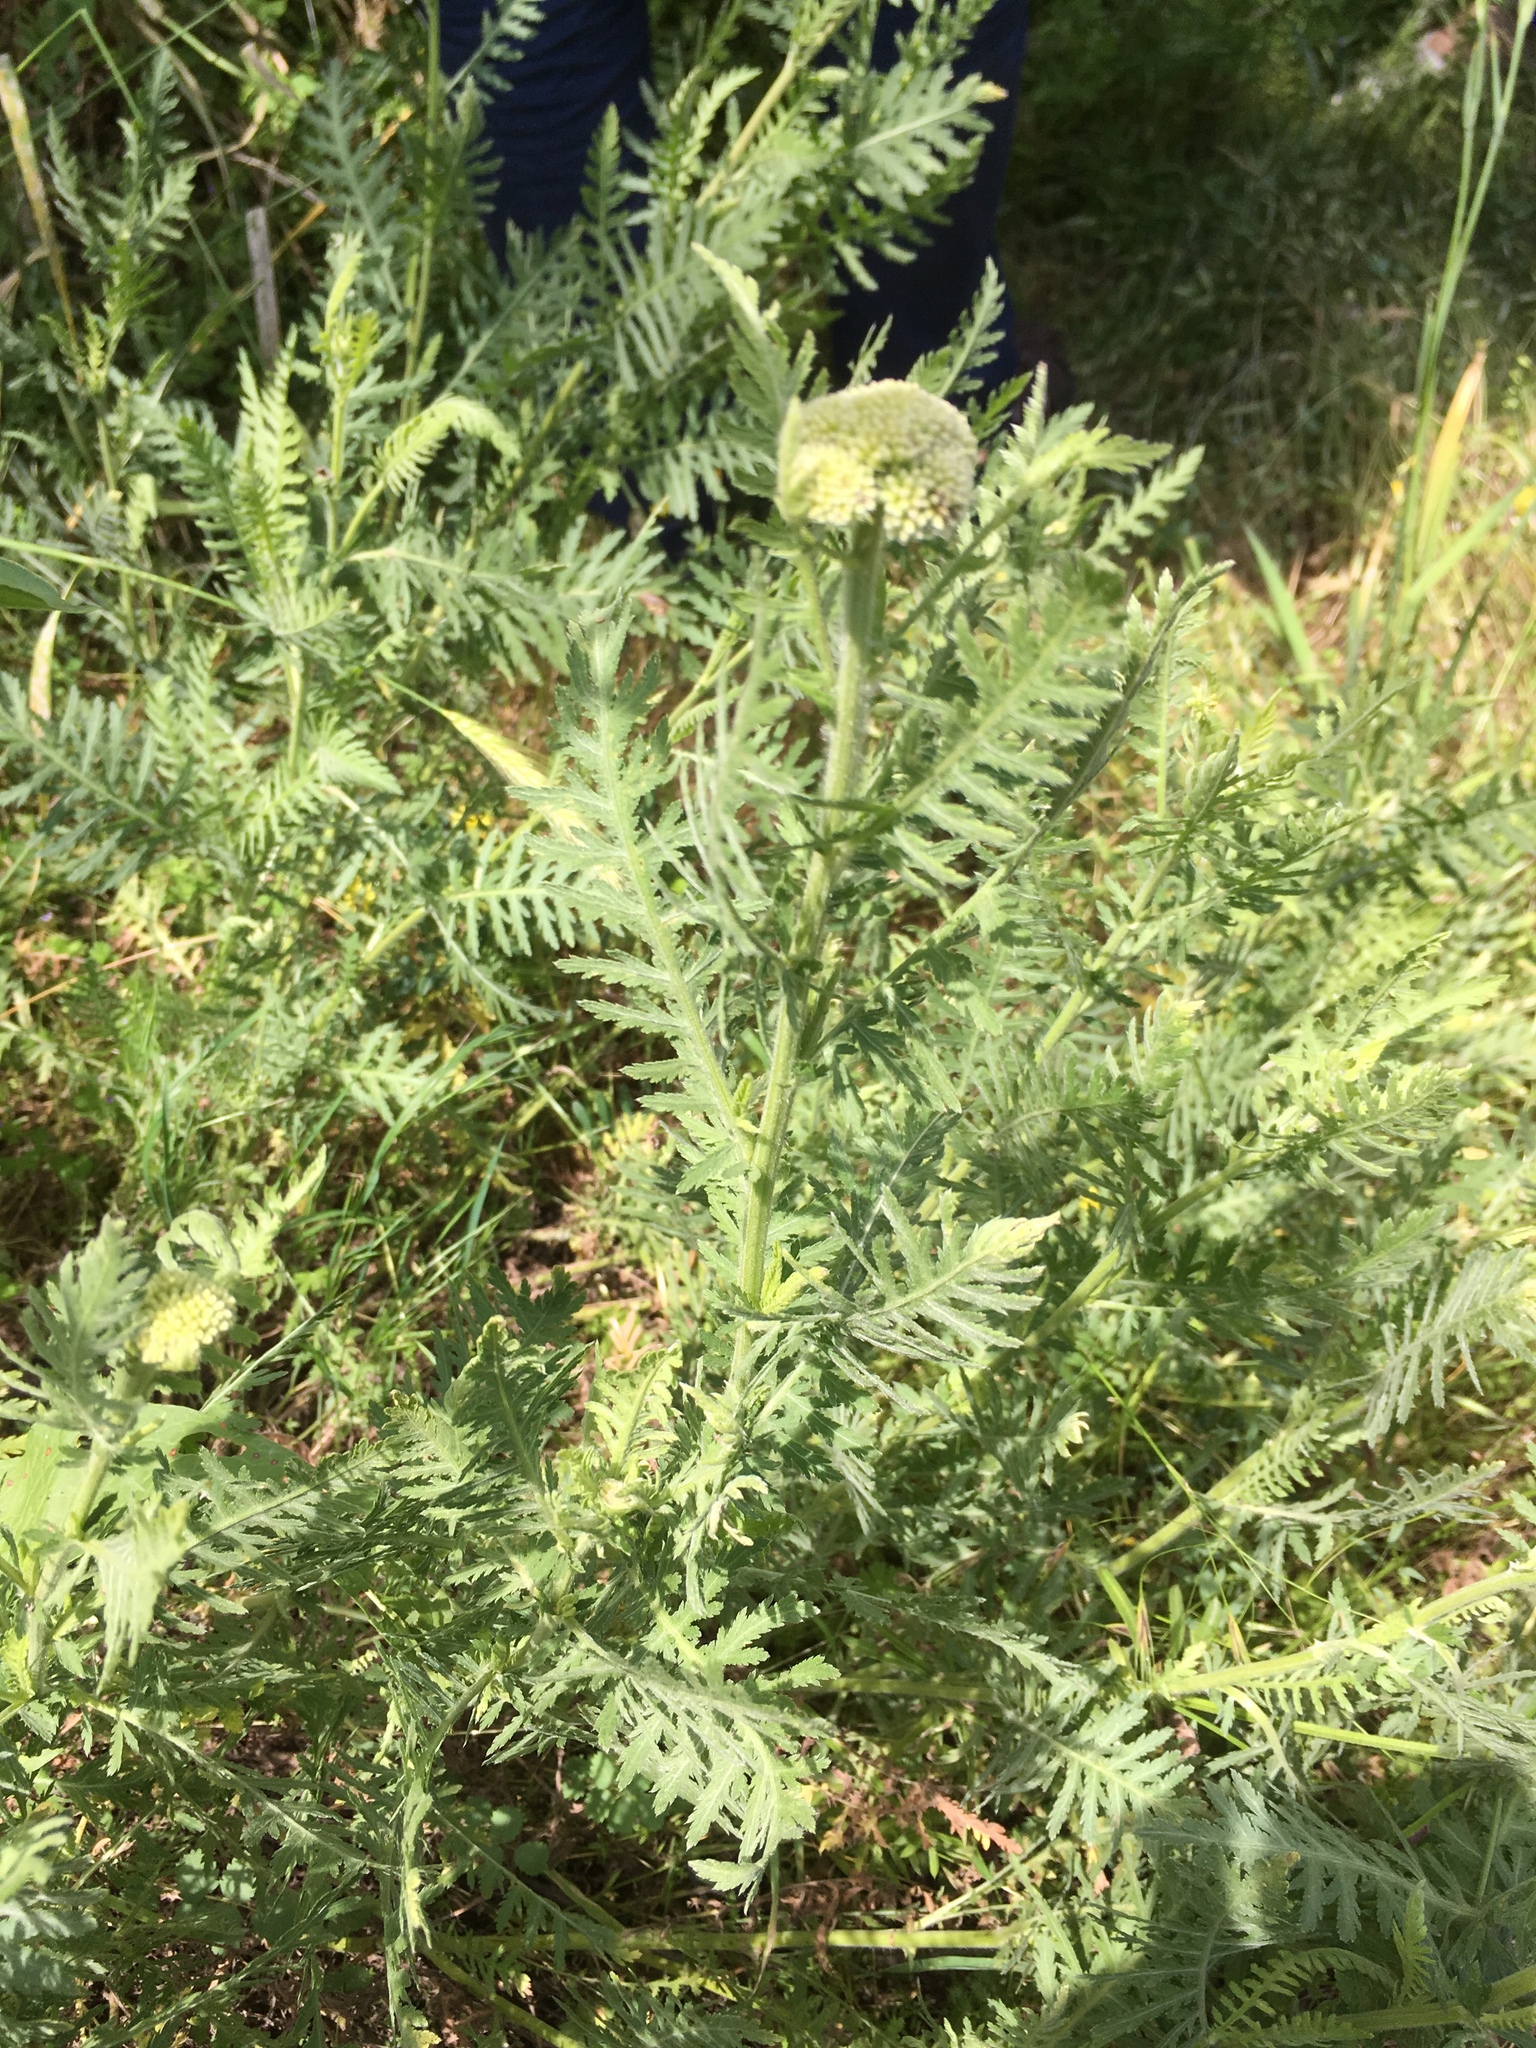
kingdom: Plantae
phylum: Tracheophyta
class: Magnoliopsida
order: Asterales
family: Asteraceae
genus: Achillea
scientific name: Achillea filipendulina
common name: Fernleaf yarrow
